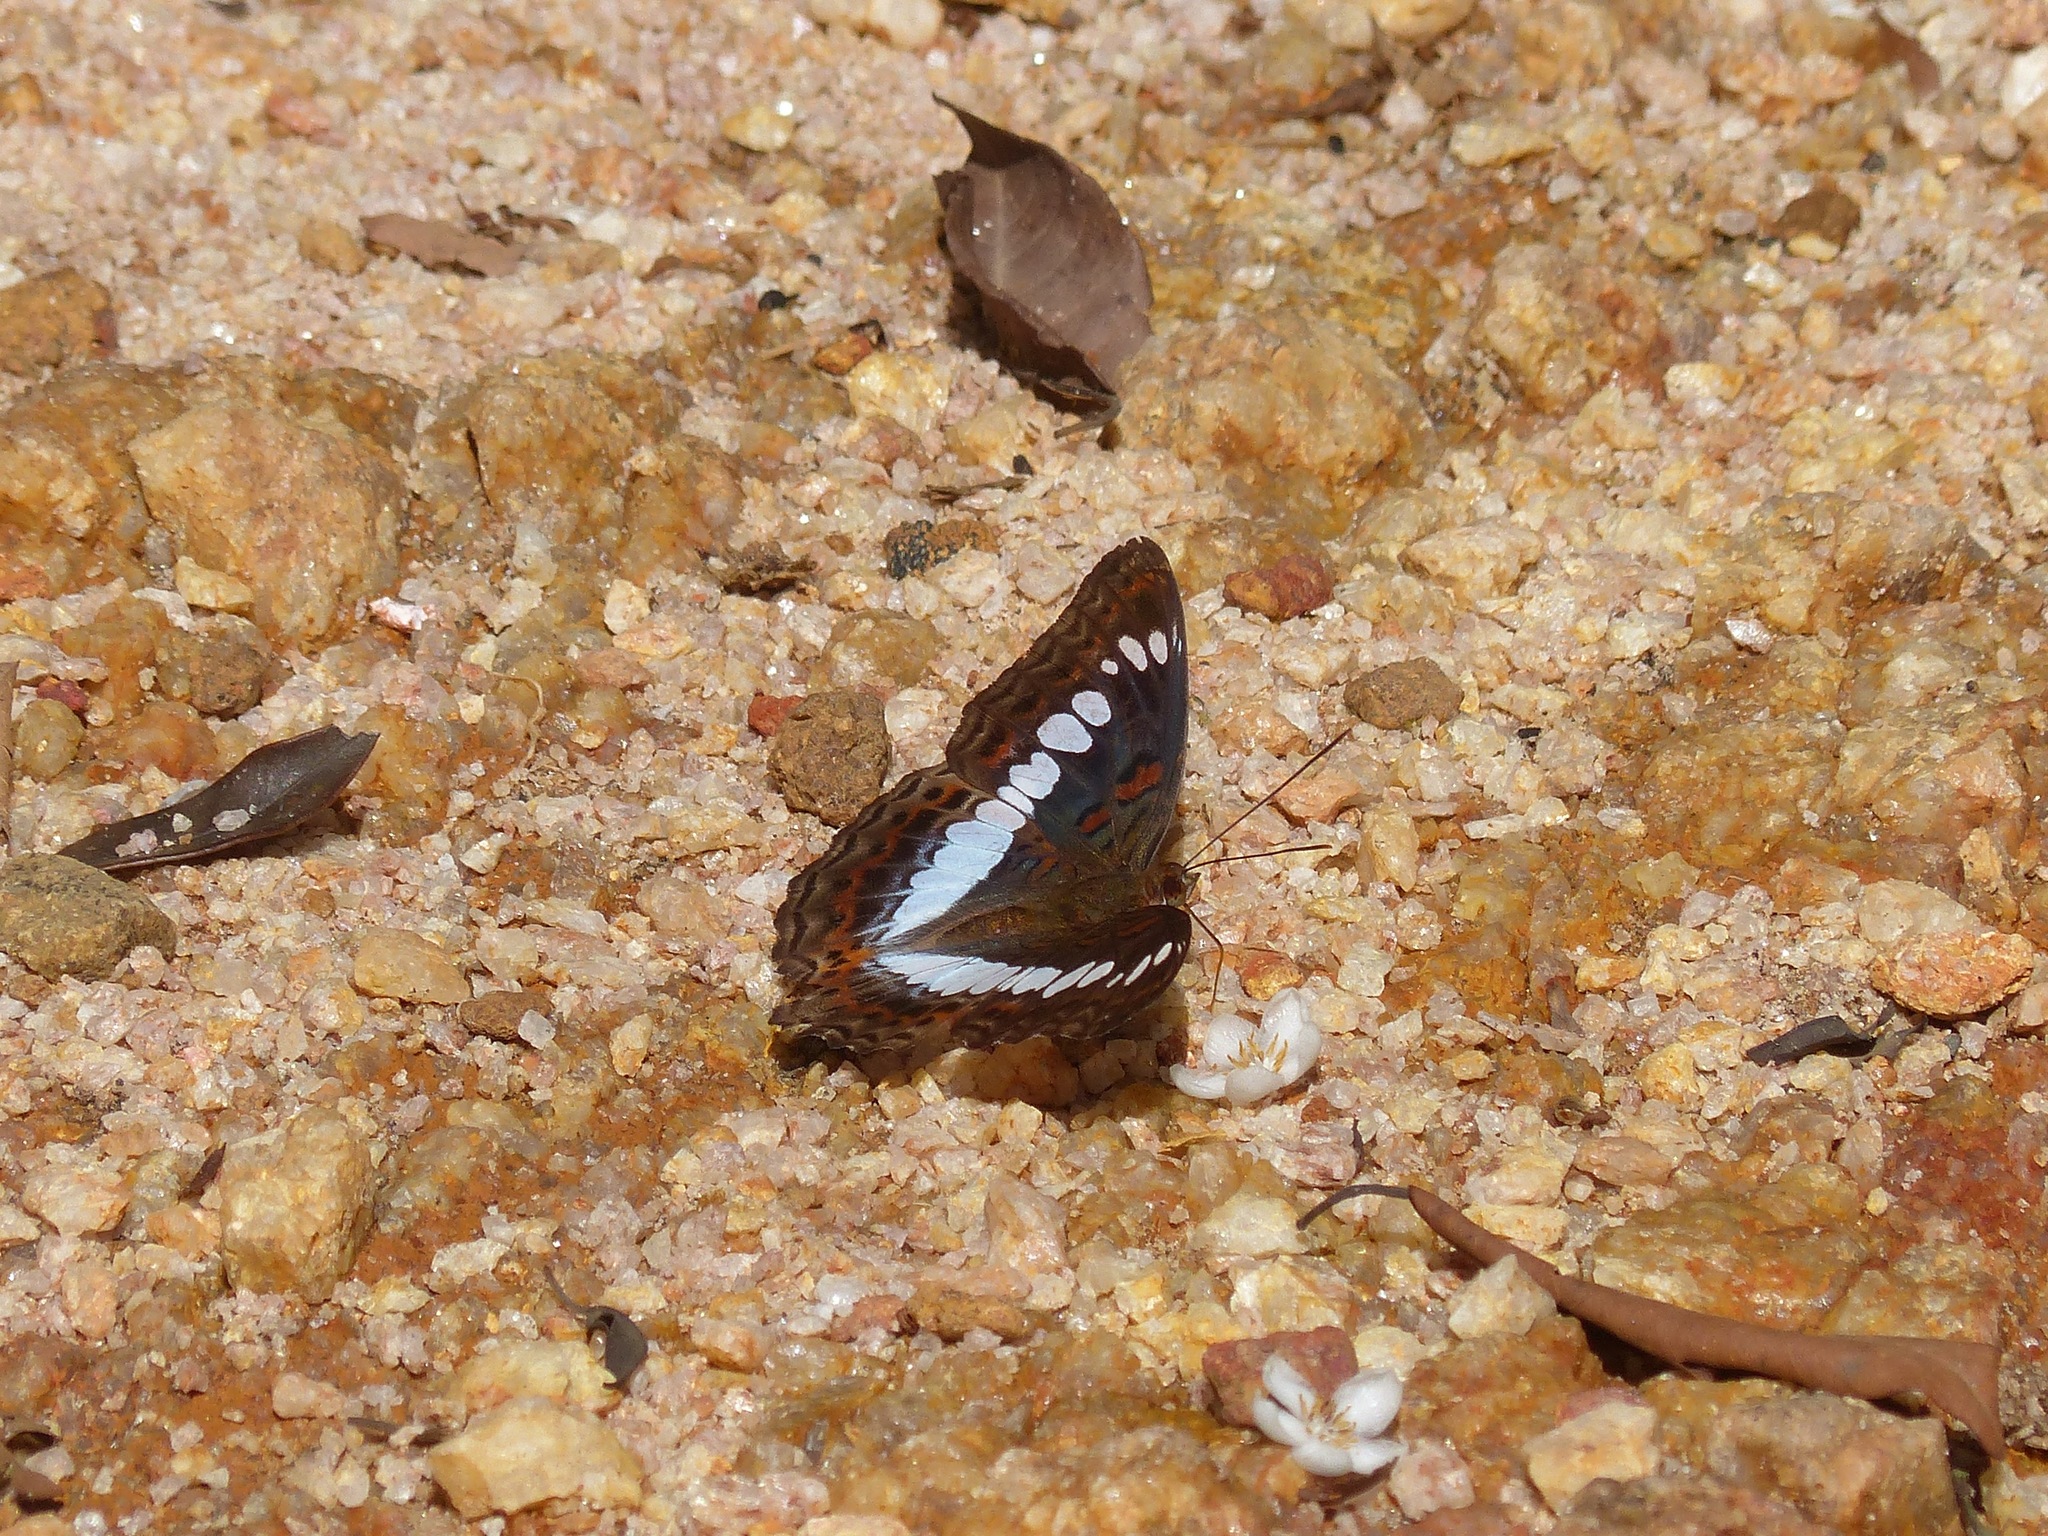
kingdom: Animalia
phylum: Arthropoda
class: Insecta
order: Lepidoptera
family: Nymphalidae
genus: Limenitis
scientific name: Limenitis Moduza procris
